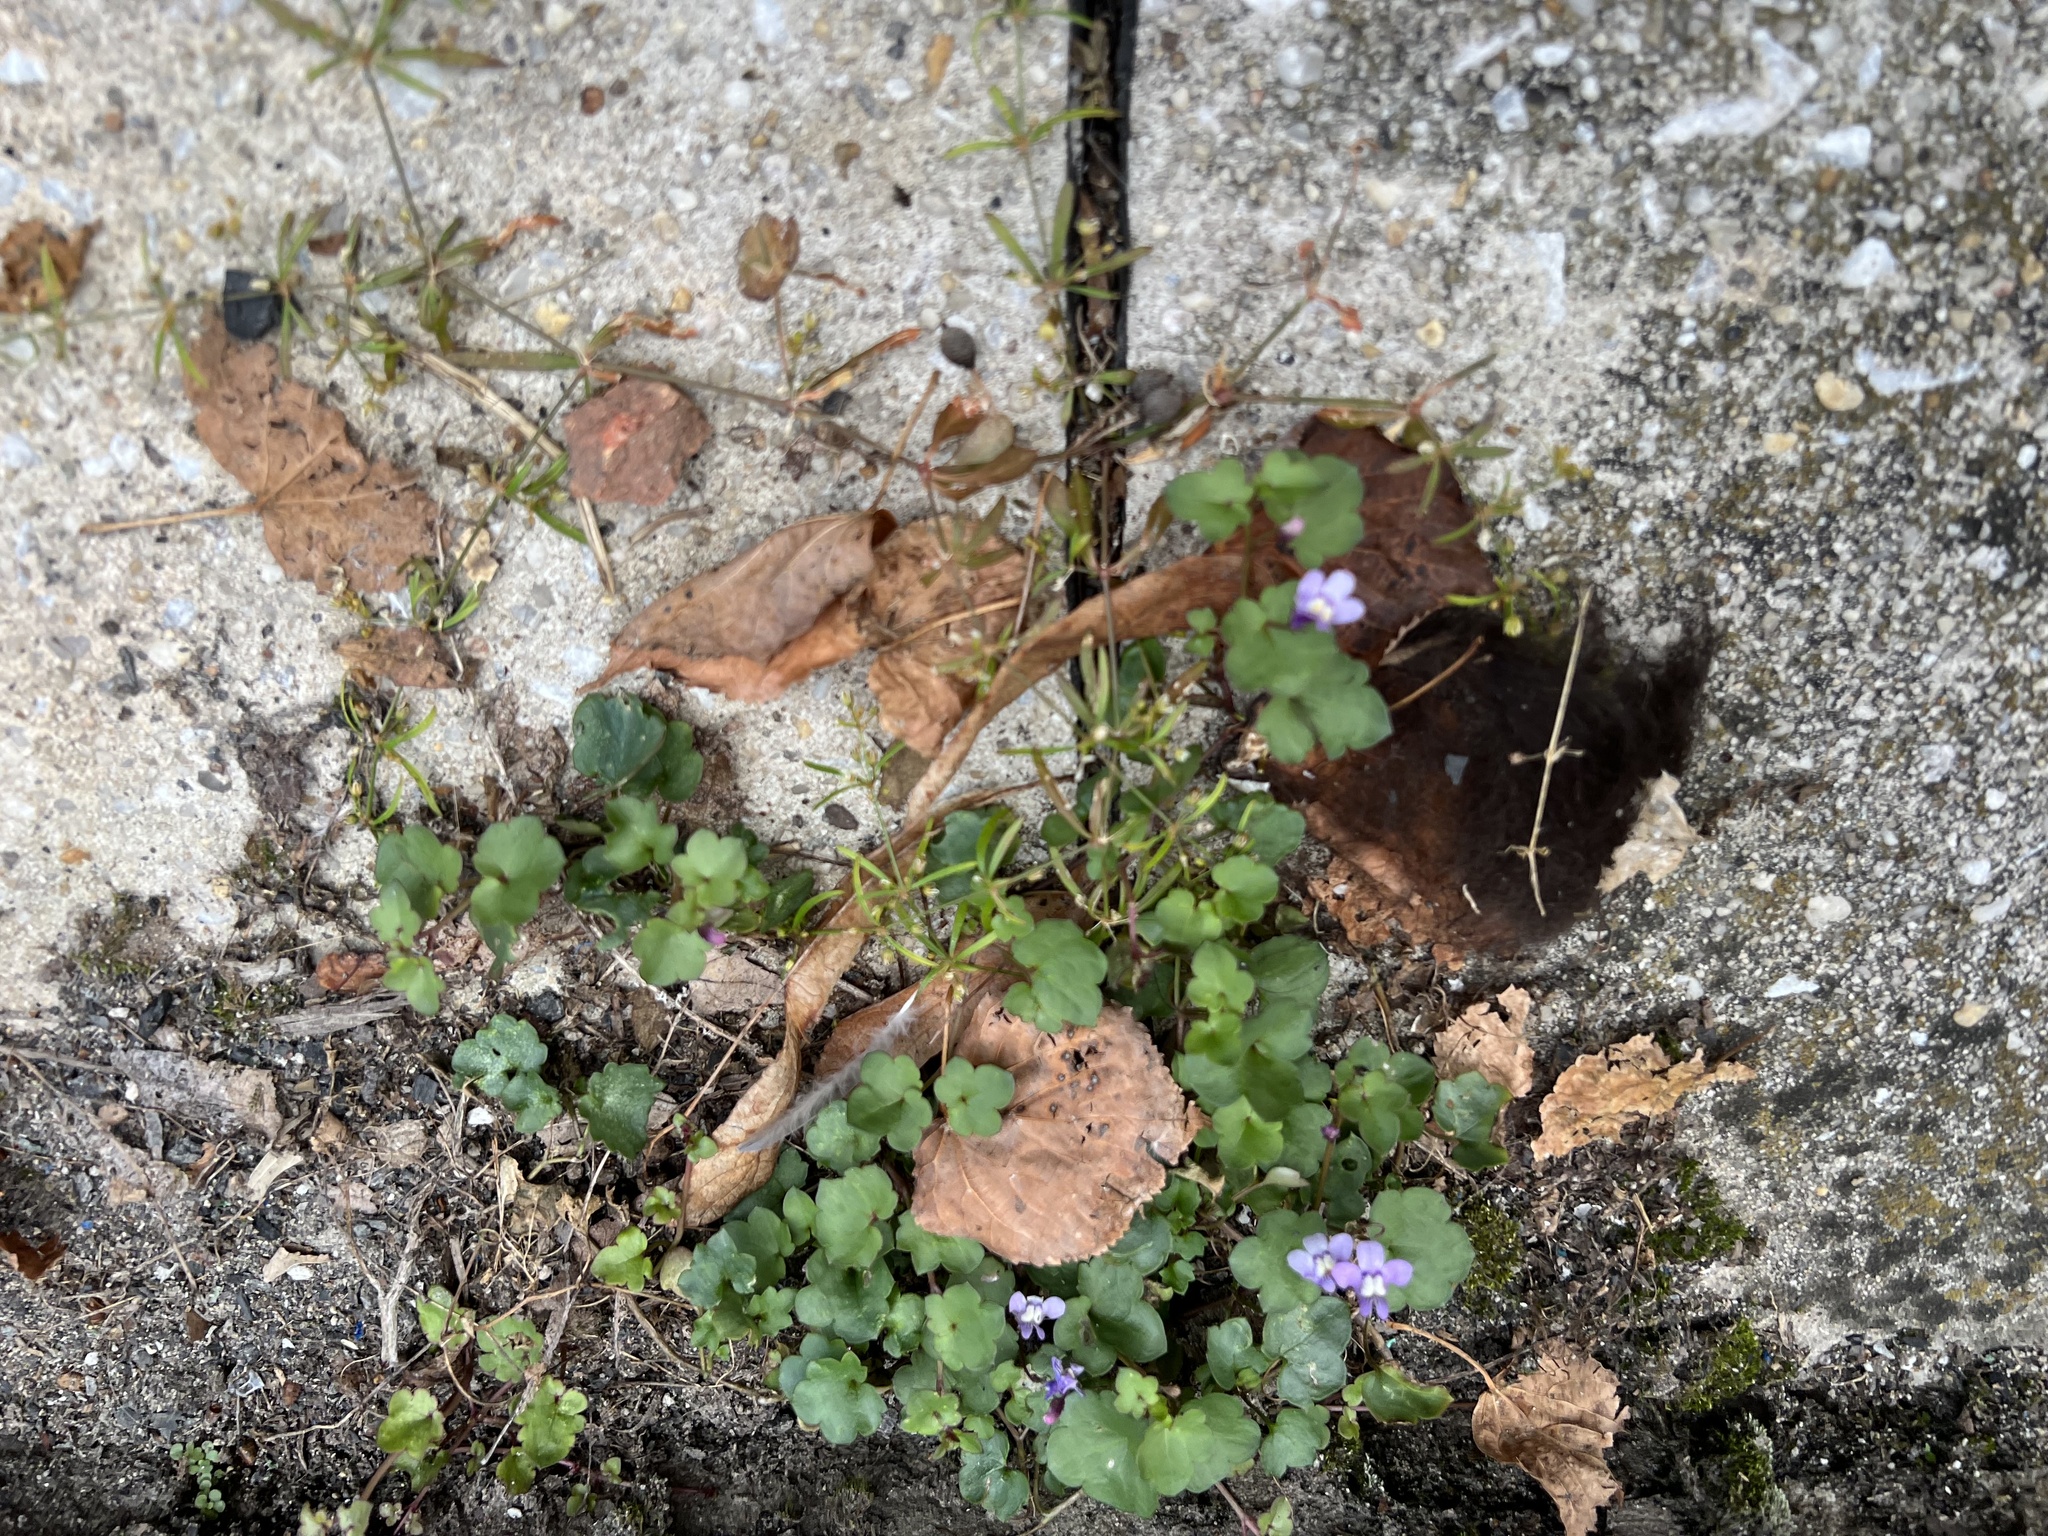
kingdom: Plantae
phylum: Tracheophyta
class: Magnoliopsida
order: Lamiales
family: Plantaginaceae
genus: Cymbalaria
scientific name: Cymbalaria muralis
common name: Ivy-leaved toadflax
